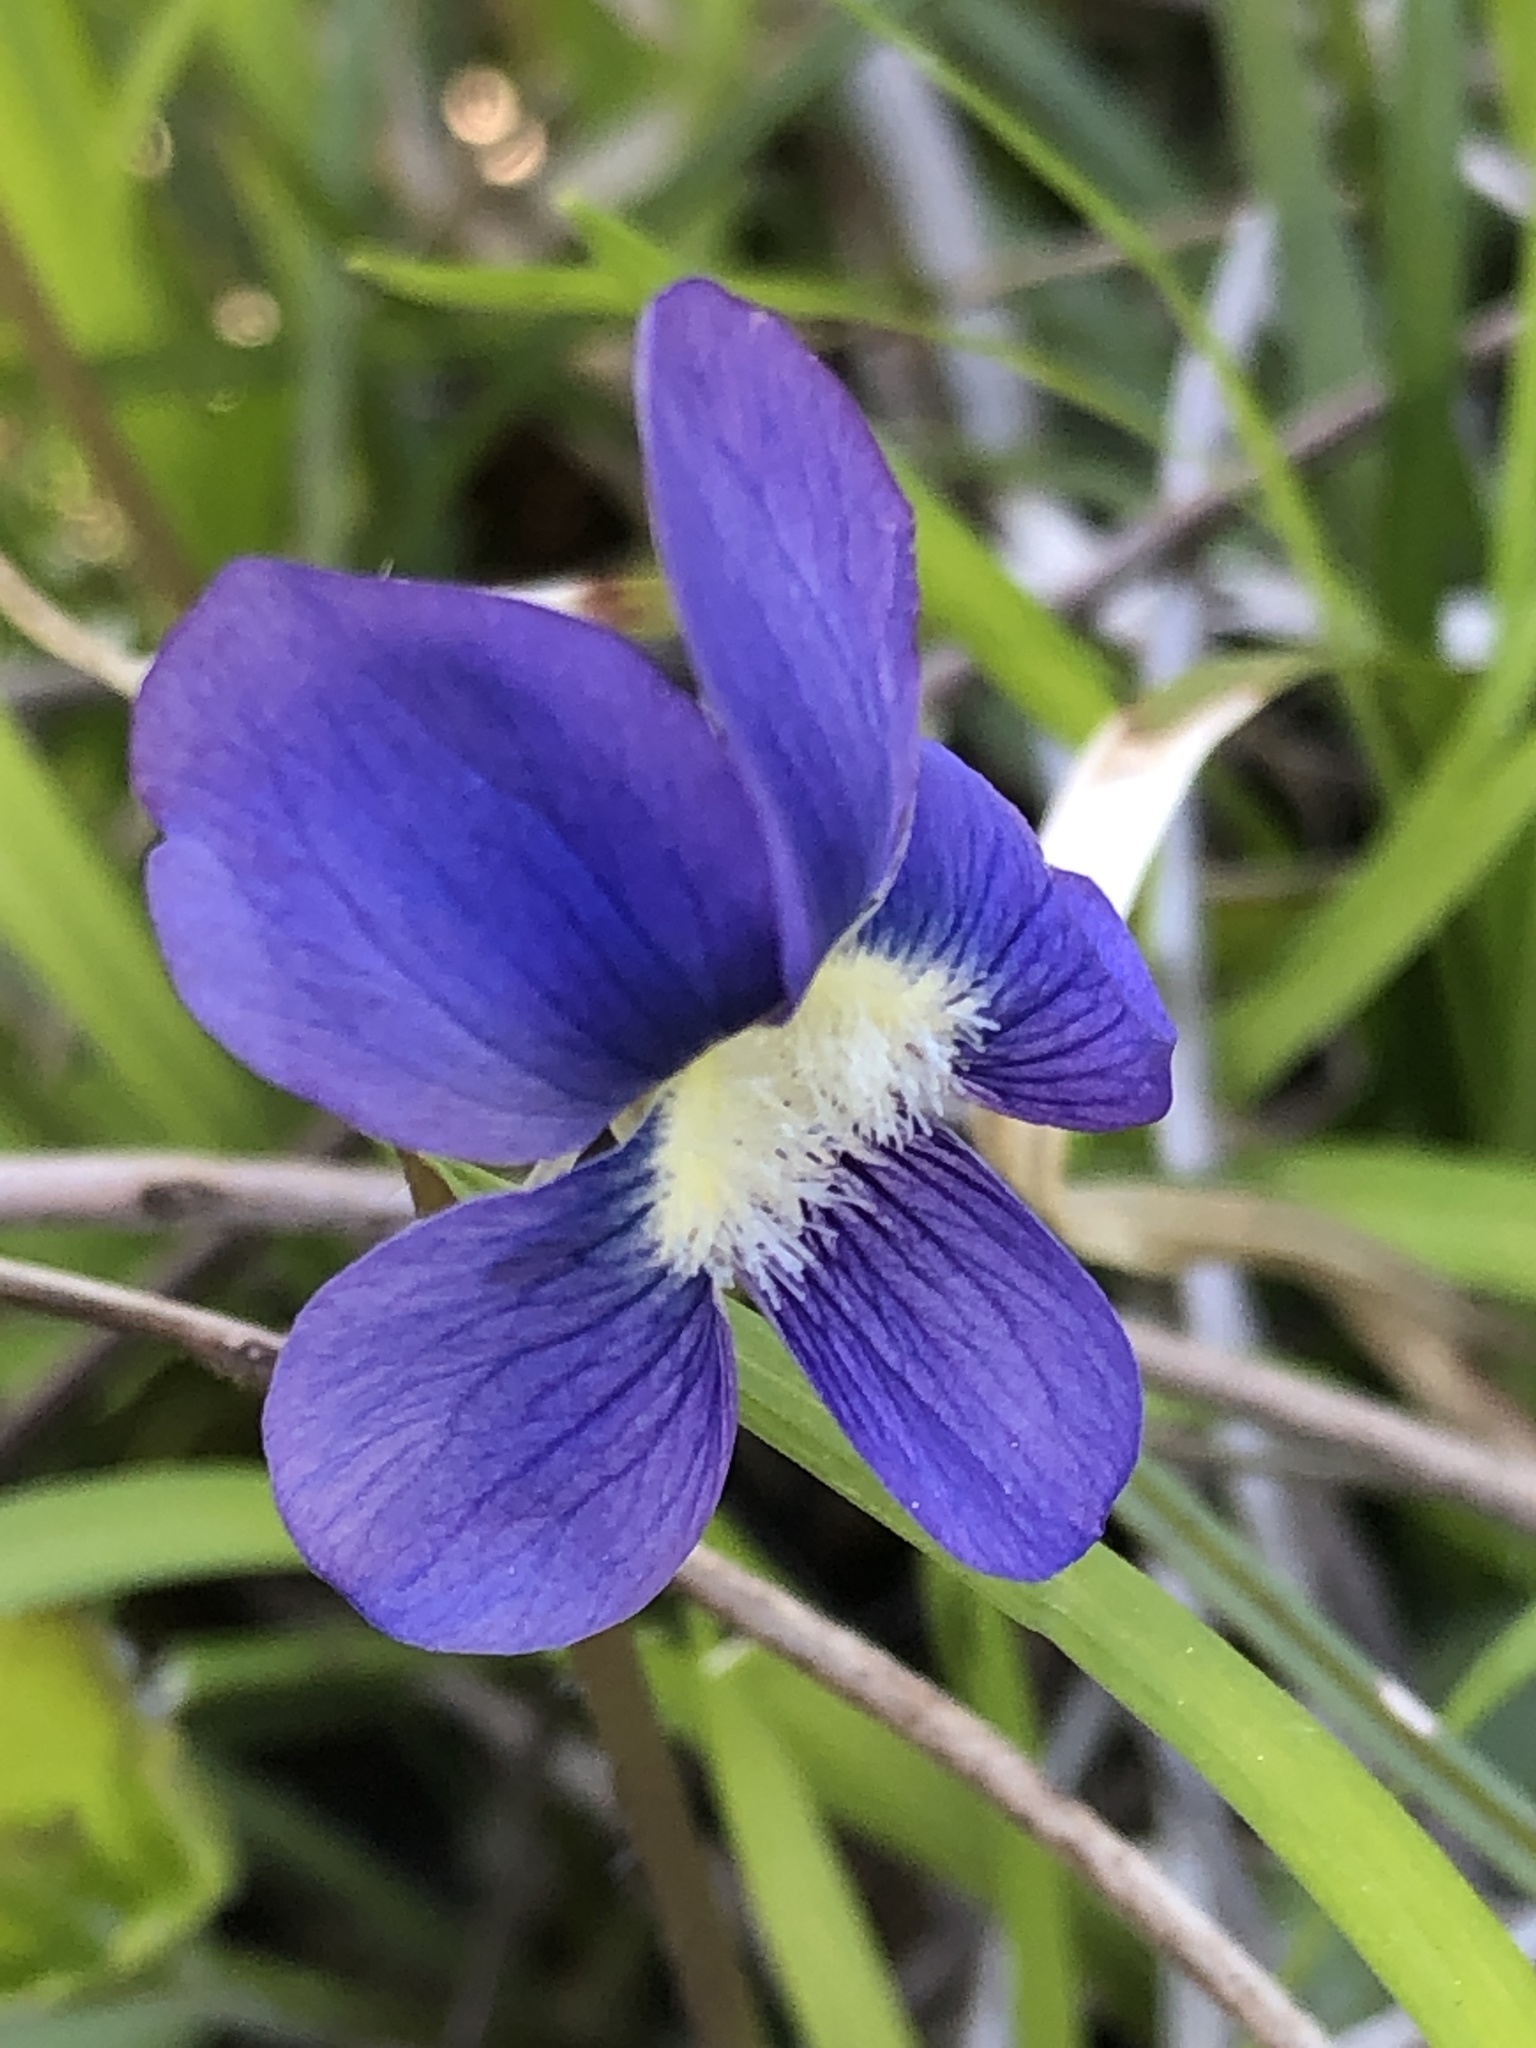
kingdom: Plantae
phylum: Tracheophyta
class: Magnoliopsida
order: Malpighiales
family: Violaceae
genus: Viola
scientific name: Viola sororia
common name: Dooryard violet
